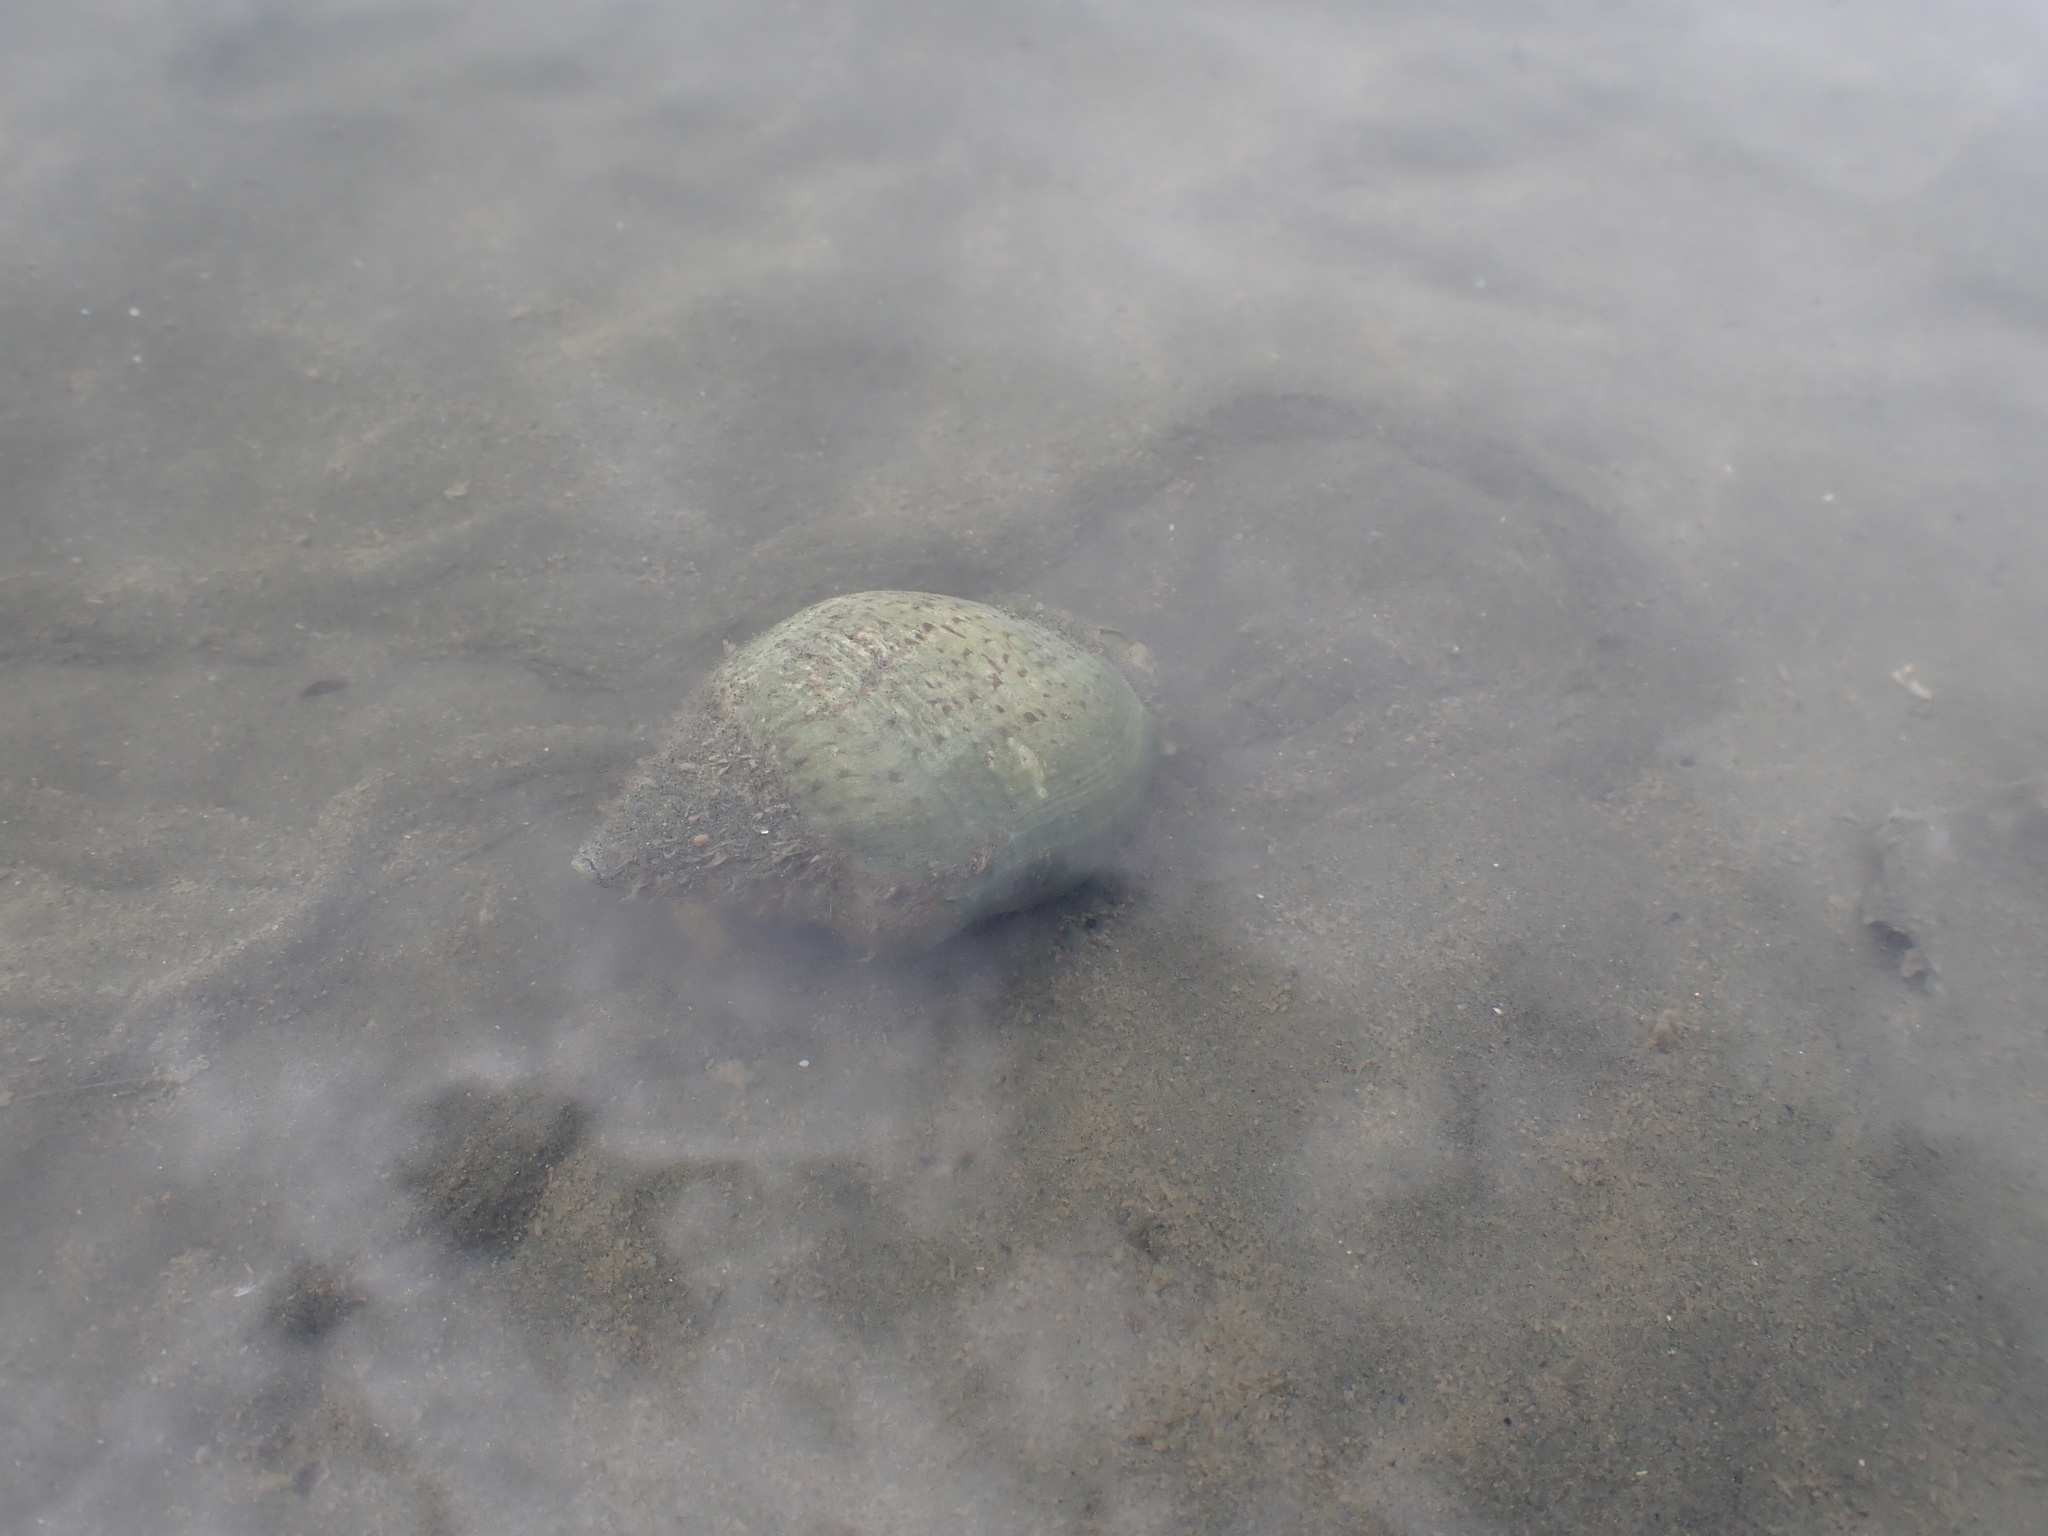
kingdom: Animalia
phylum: Mollusca
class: Gastropoda
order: Neogastropoda
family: Cominellidae
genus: Cominella
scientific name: Cominella adspersa
